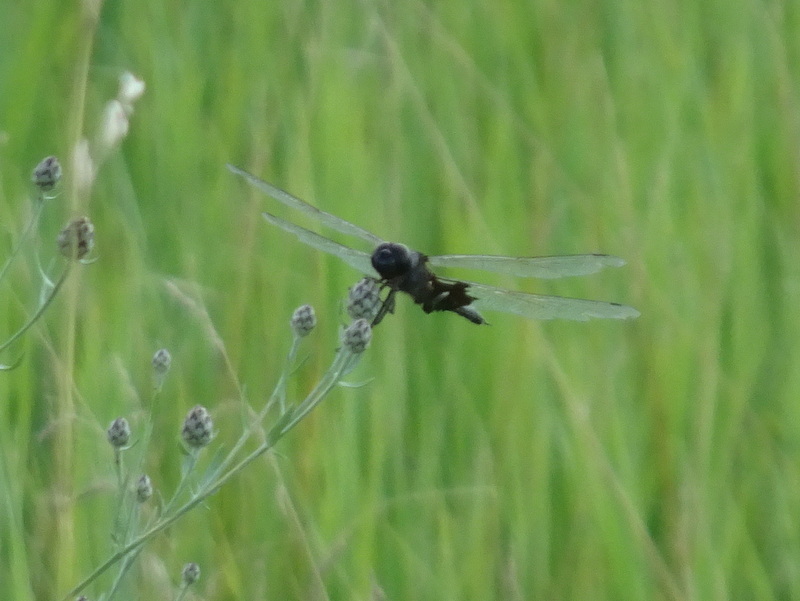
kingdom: Animalia
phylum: Arthropoda
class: Insecta
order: Odonata
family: Libellulidae
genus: Tramea
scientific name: Tramea lacerata
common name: Black saddlebags
